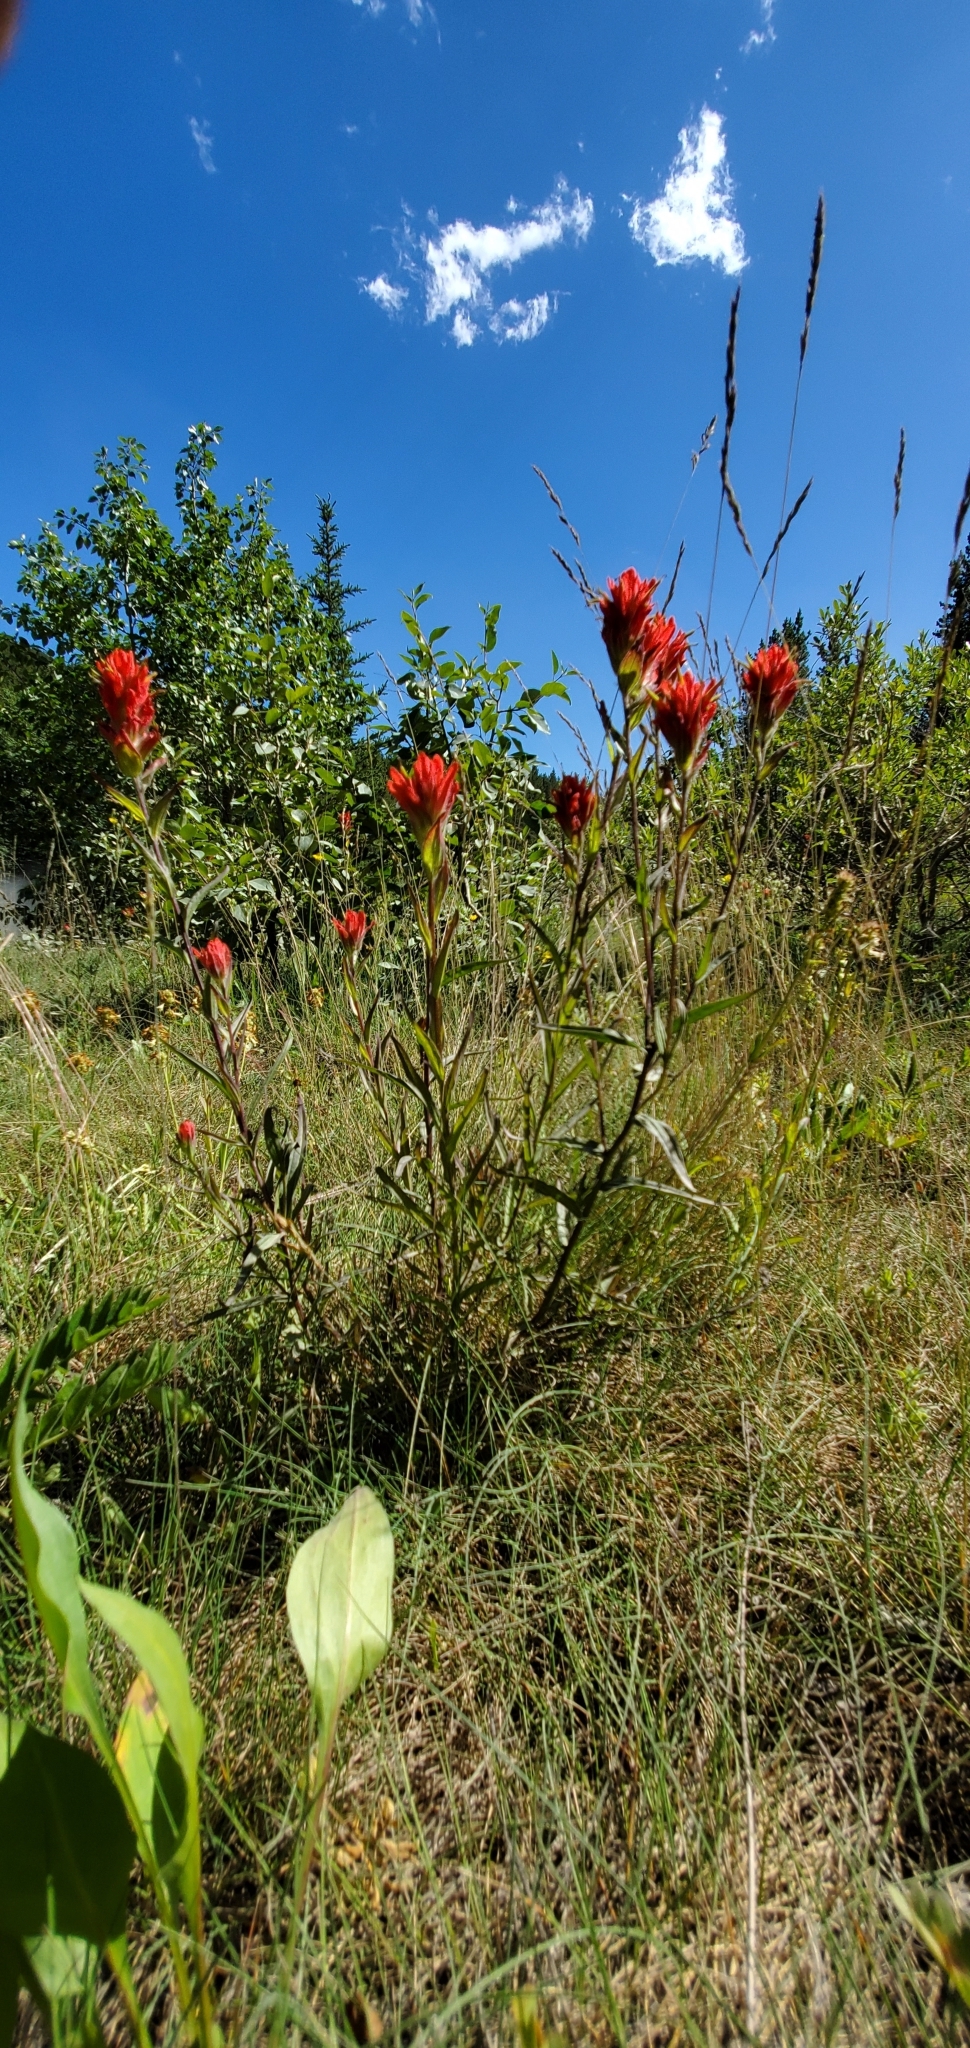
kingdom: Plantae
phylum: Tracheophyta
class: Magnoliopsida
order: Lamiales
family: Orobanchaceae
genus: Castilleja
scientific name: Castilleja miniata
